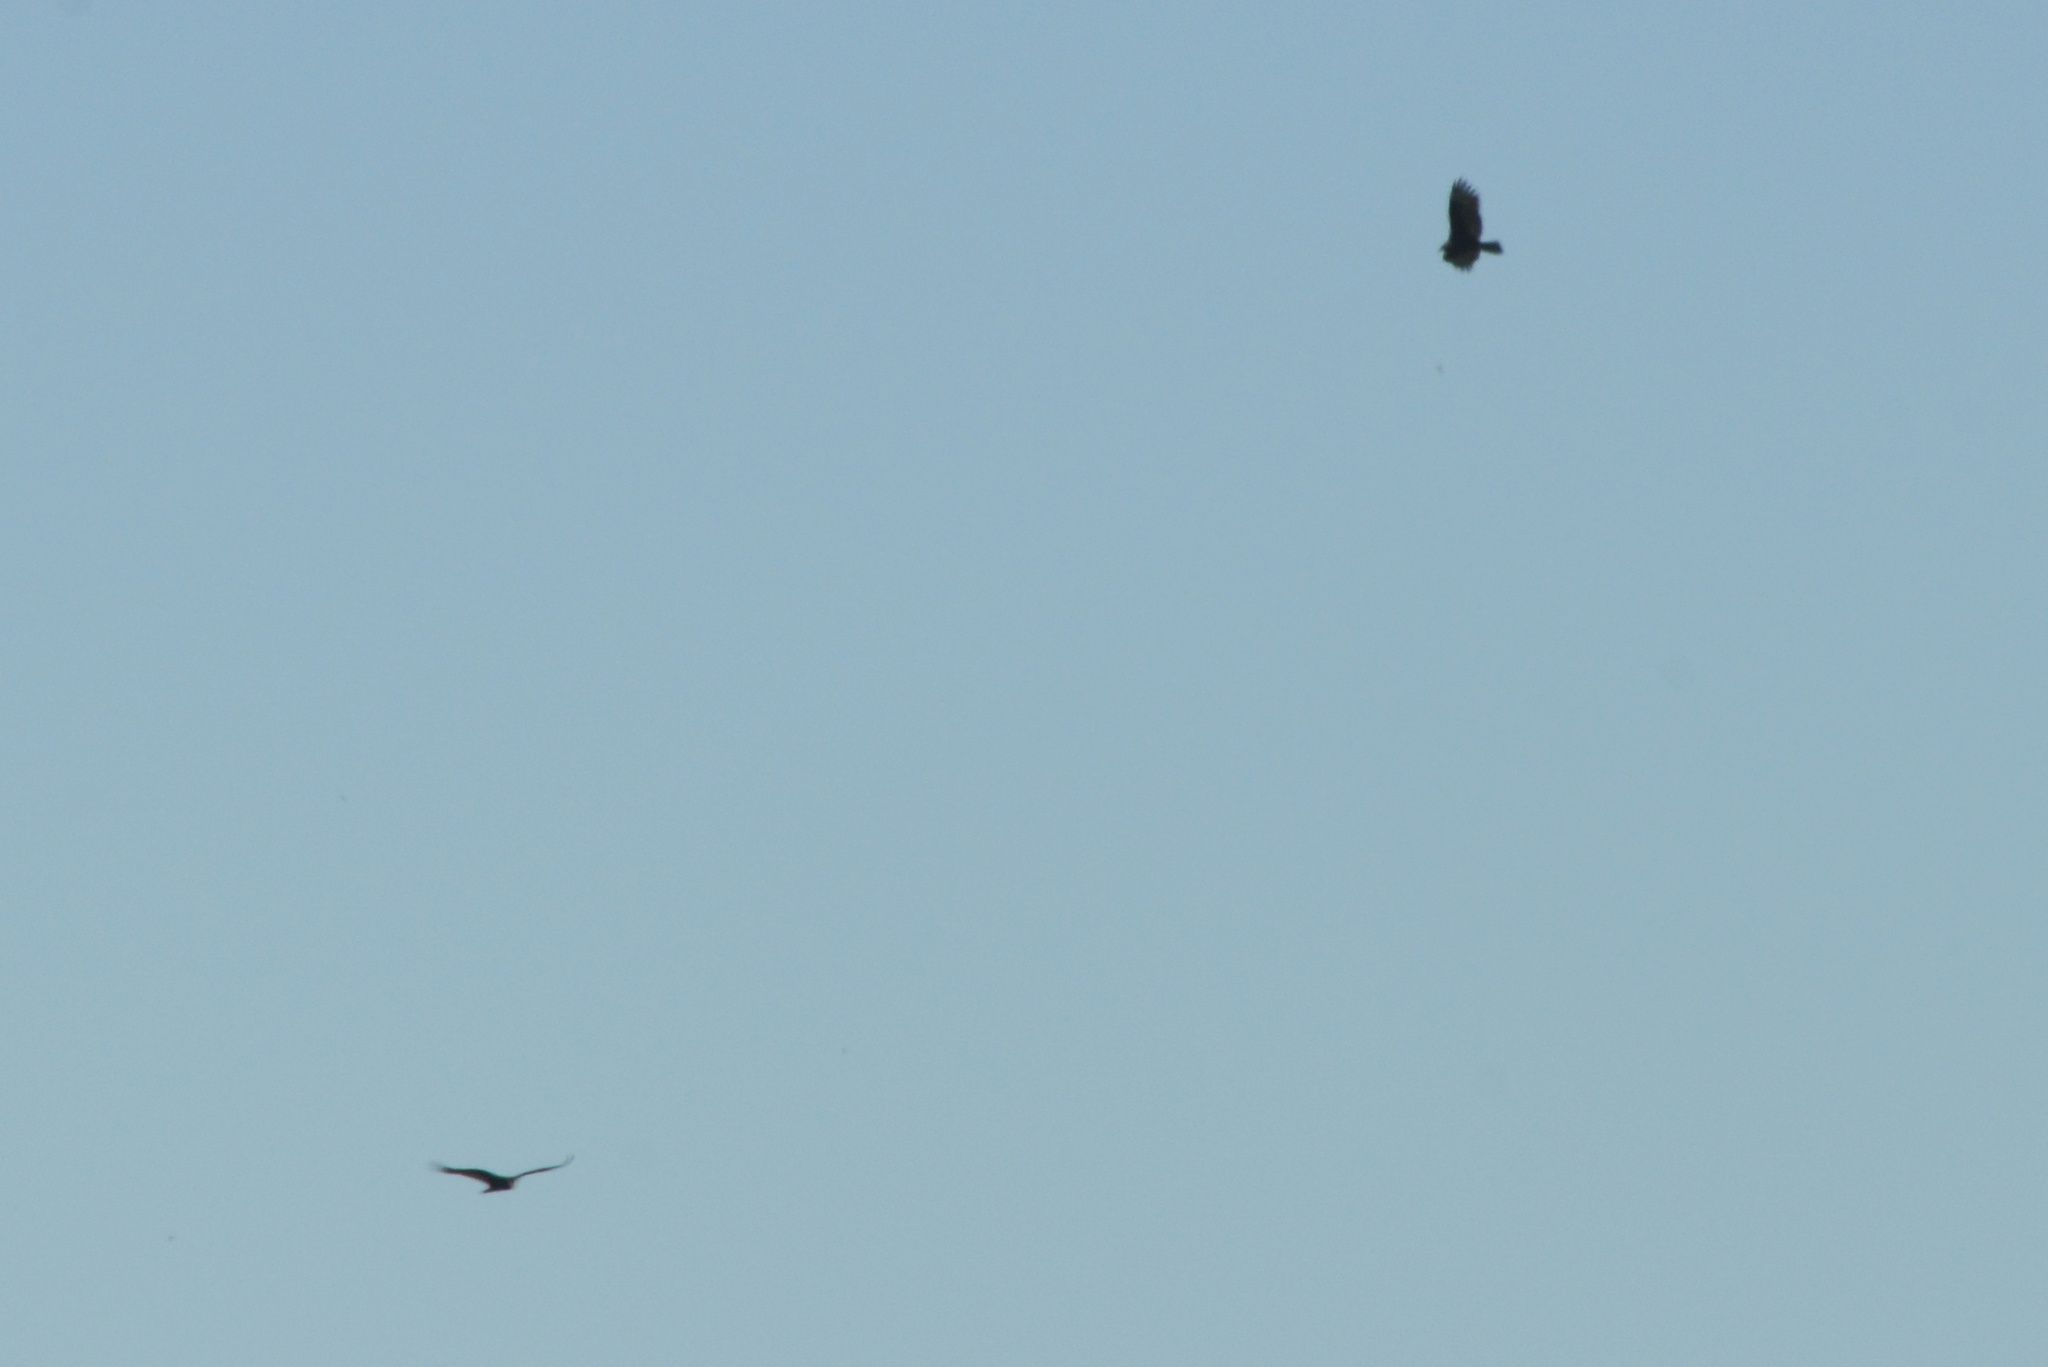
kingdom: Animalia
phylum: Chordata
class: Aves
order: Accipitriformes
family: Cathartidae
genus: Cathartes
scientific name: Cathartes aura
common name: Turkey vulture
